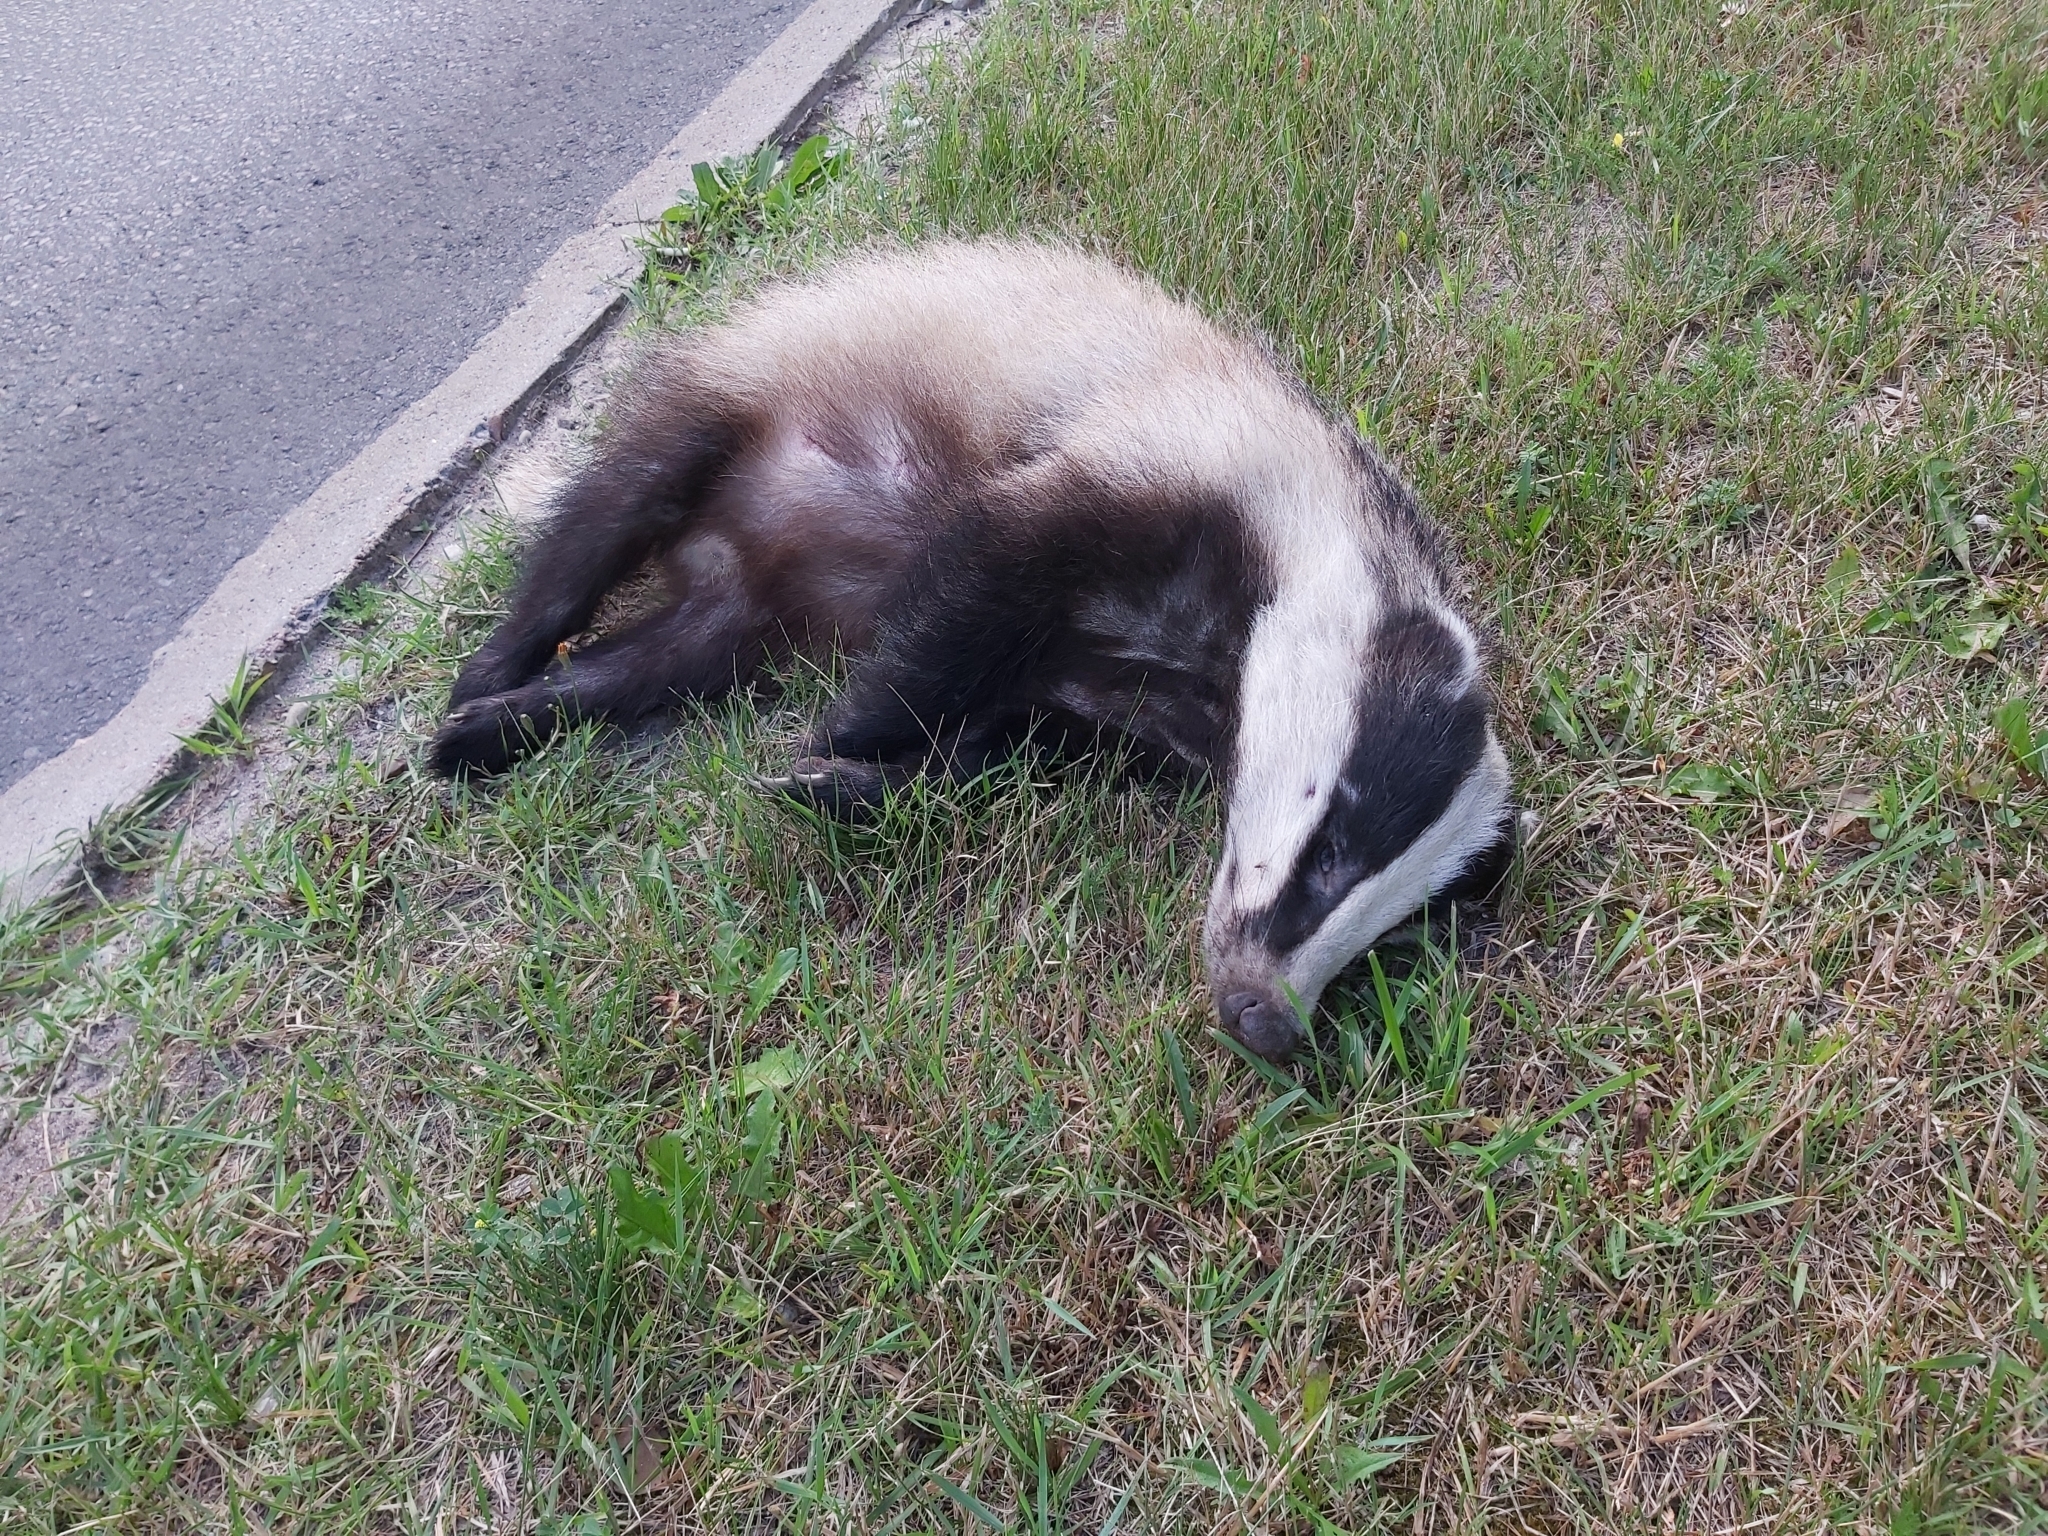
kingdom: Animalia
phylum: Chordata
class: Mammalia
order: Carnivora
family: Mustelidae
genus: Meles
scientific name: Meles meles
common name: Eurasian badger
